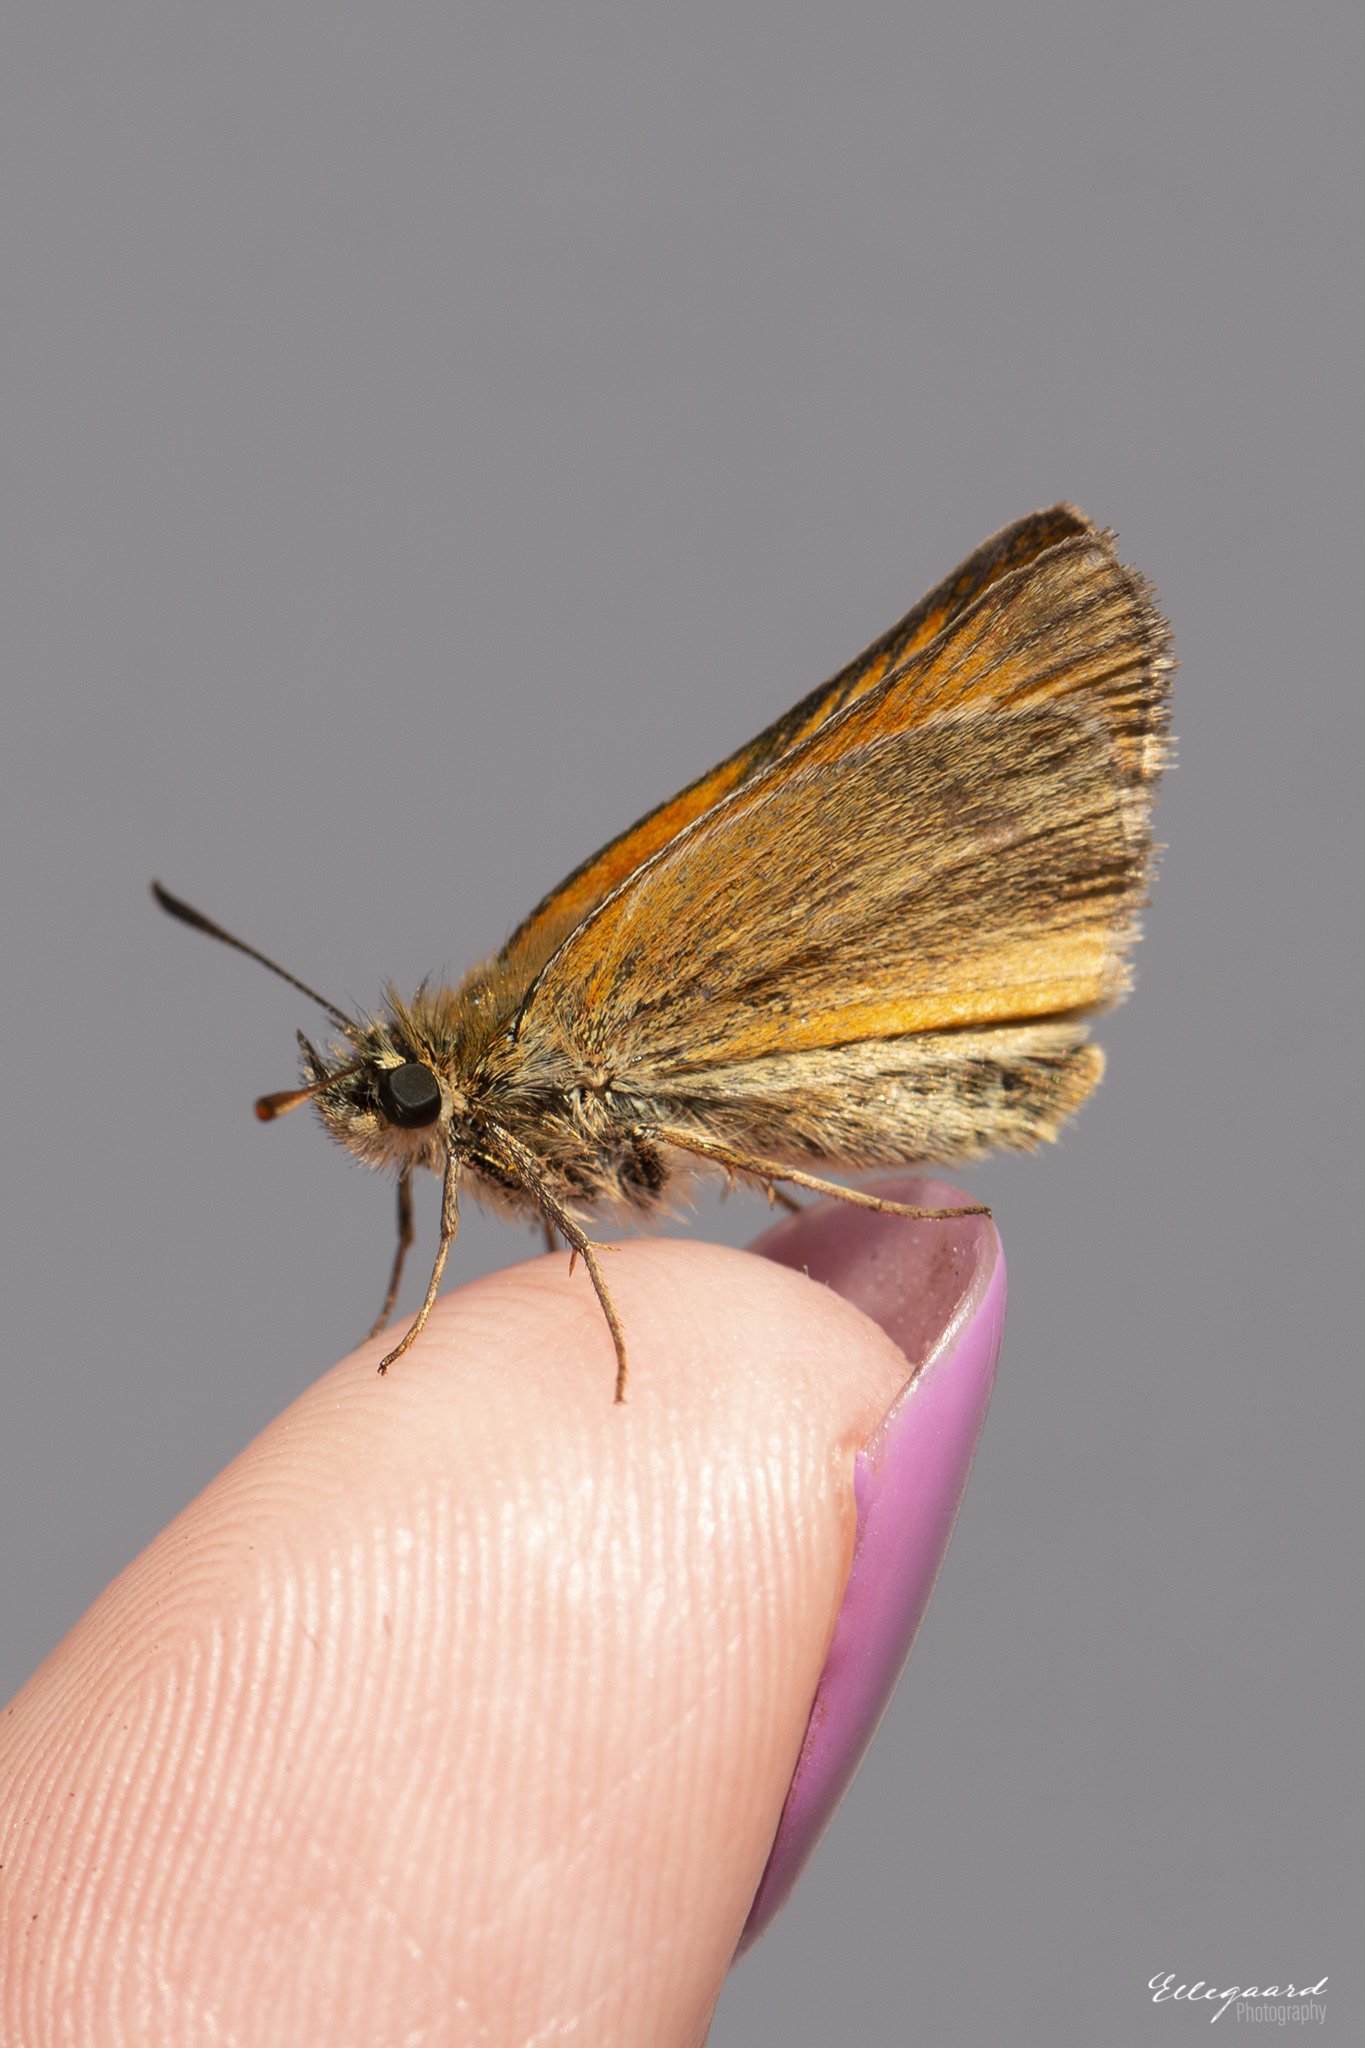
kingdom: Animalia
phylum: Arthropoda
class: Insecta
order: Lepidoptera
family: Hesperiidae
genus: Thymelicus
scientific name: Thymelicus sylvestris
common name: Small skipper
